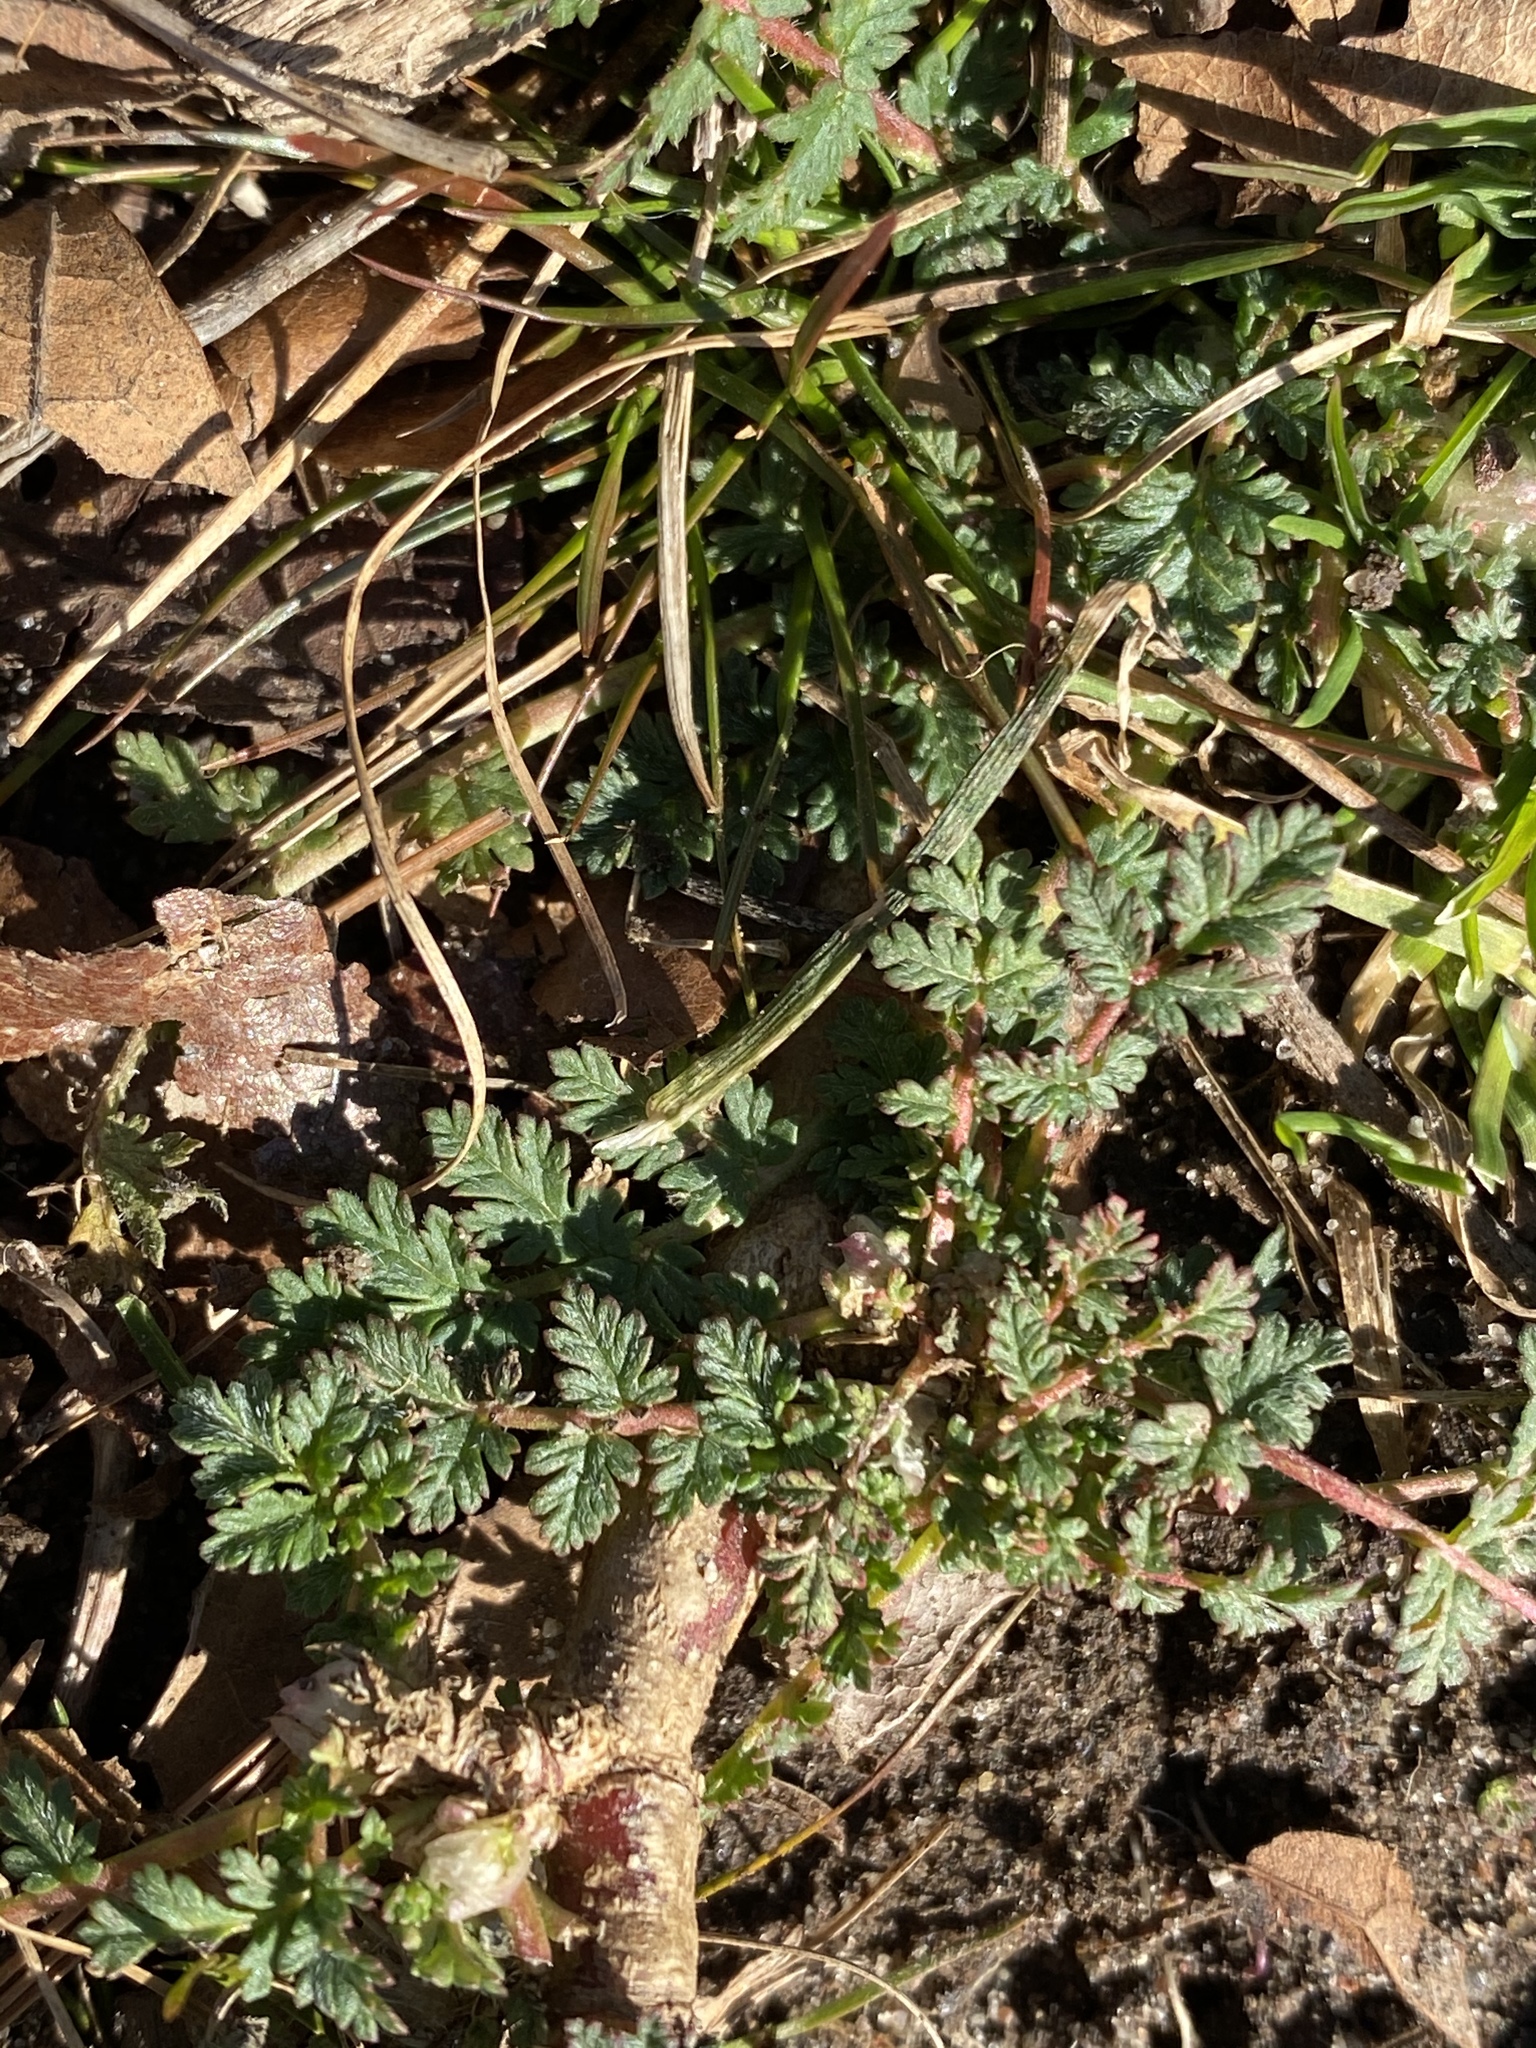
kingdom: Plantae
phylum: Tracheophyta
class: Magnoliopsida
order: Geraniales
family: Geraniaceae
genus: Erodium
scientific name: Erodium cicutarium
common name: Common stork's-bill
